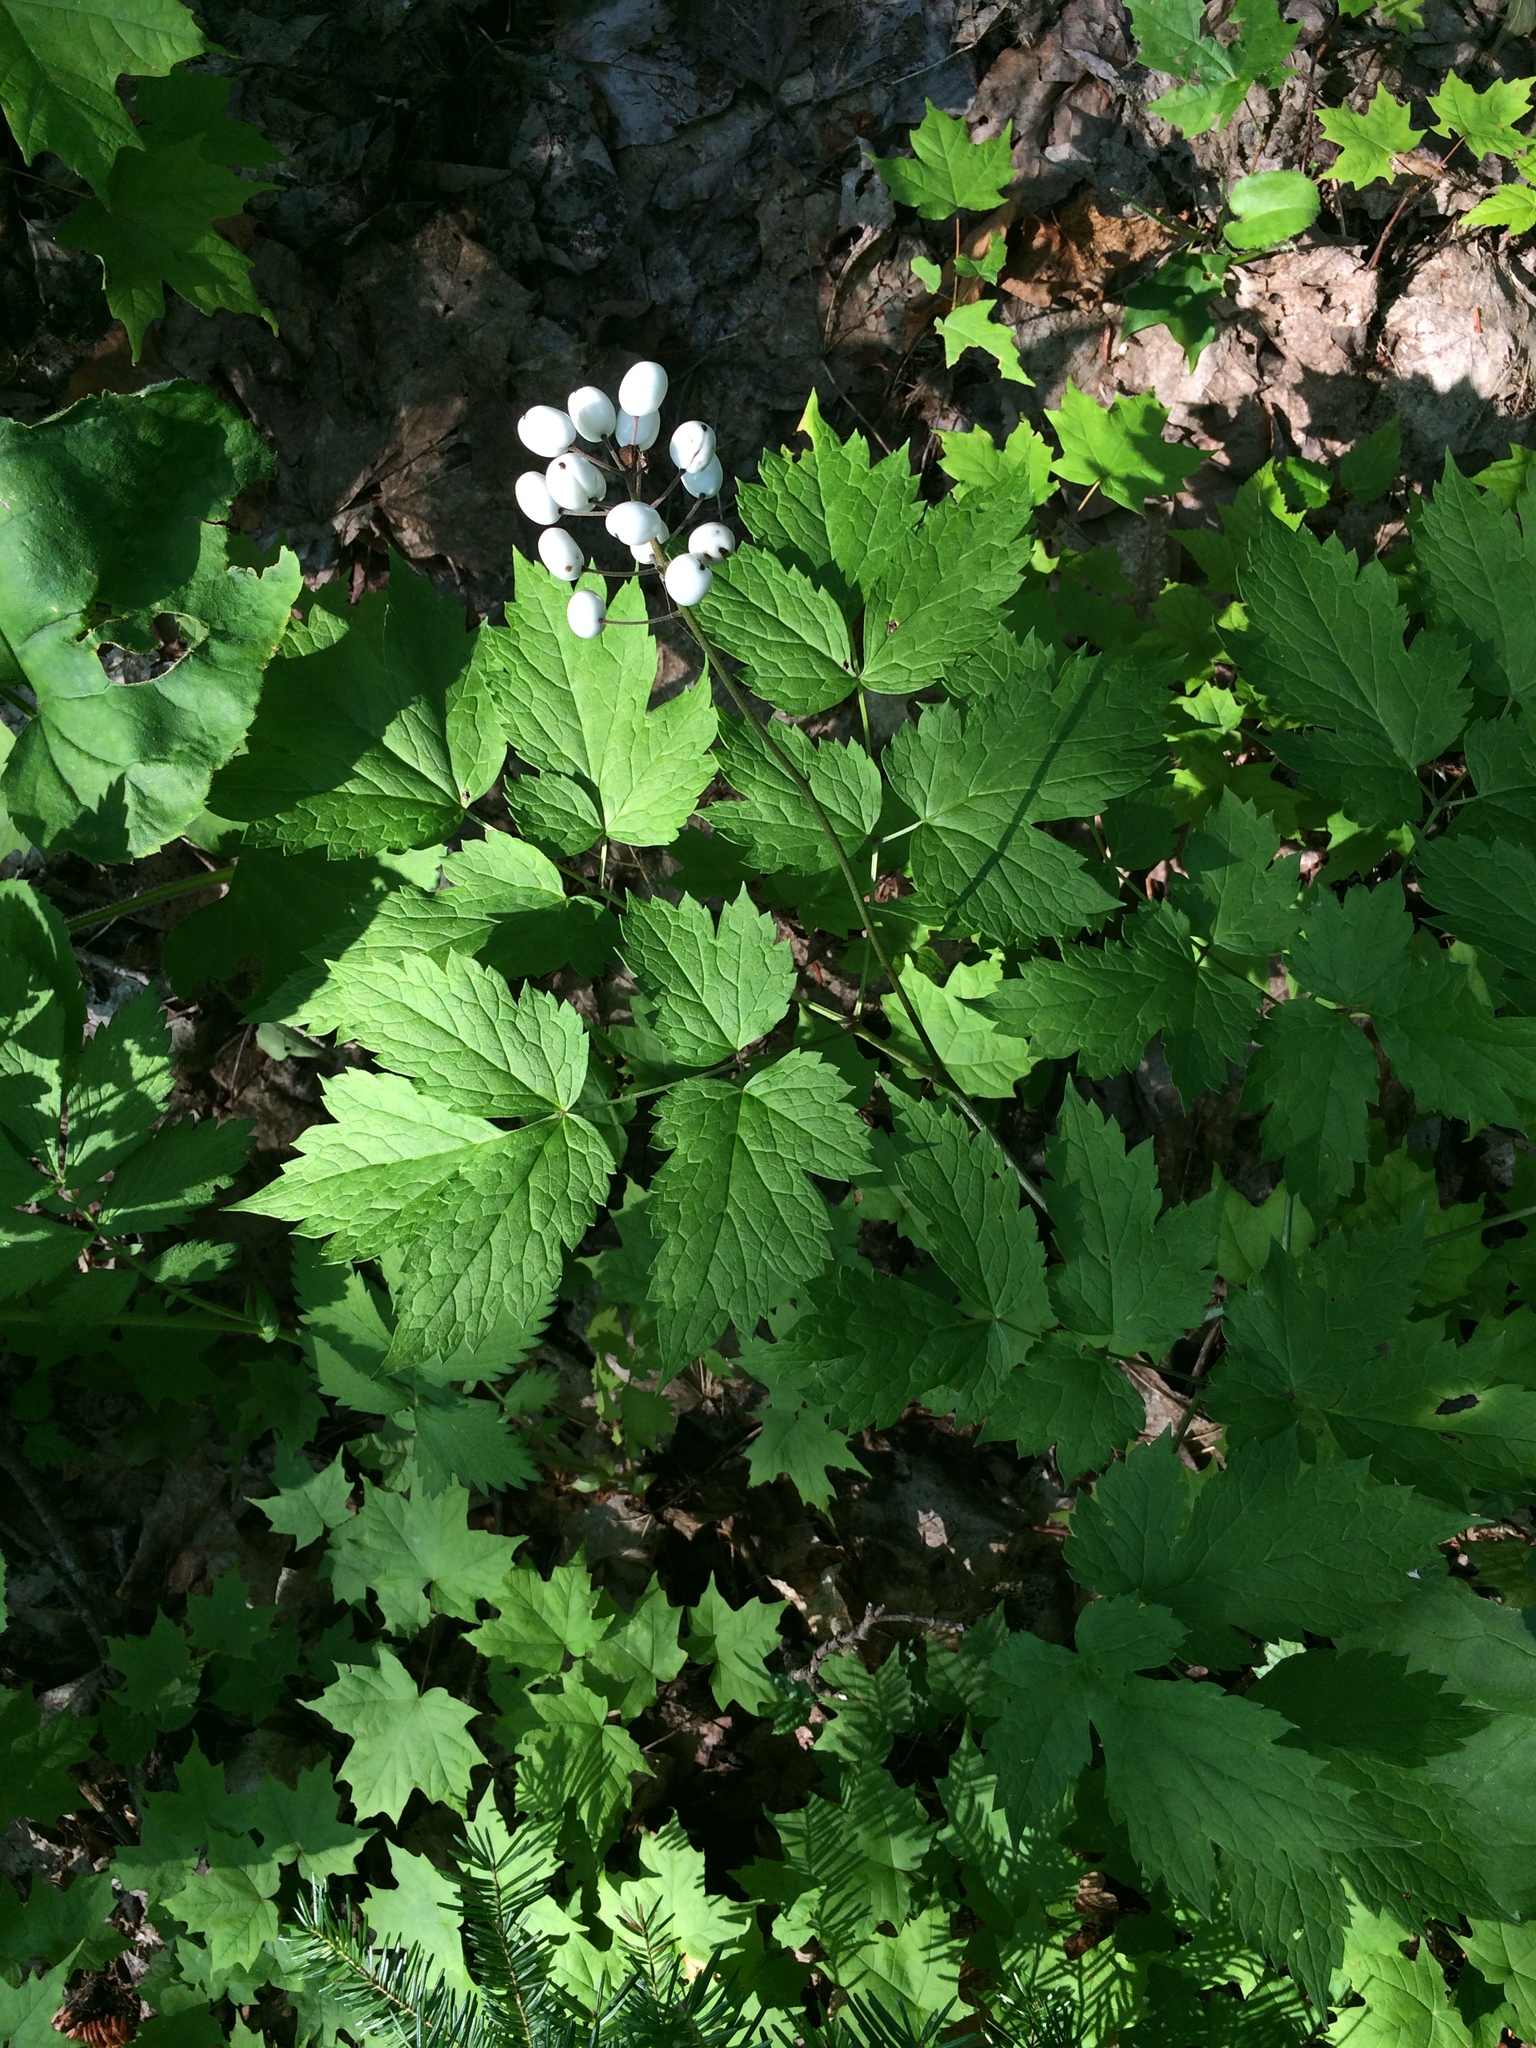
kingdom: Plantae
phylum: Tracheophyta
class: Magnoliopsida
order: Ranunculales
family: Ranunculaceae
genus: Actaea
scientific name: Actaea rubra
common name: Red baneberry
